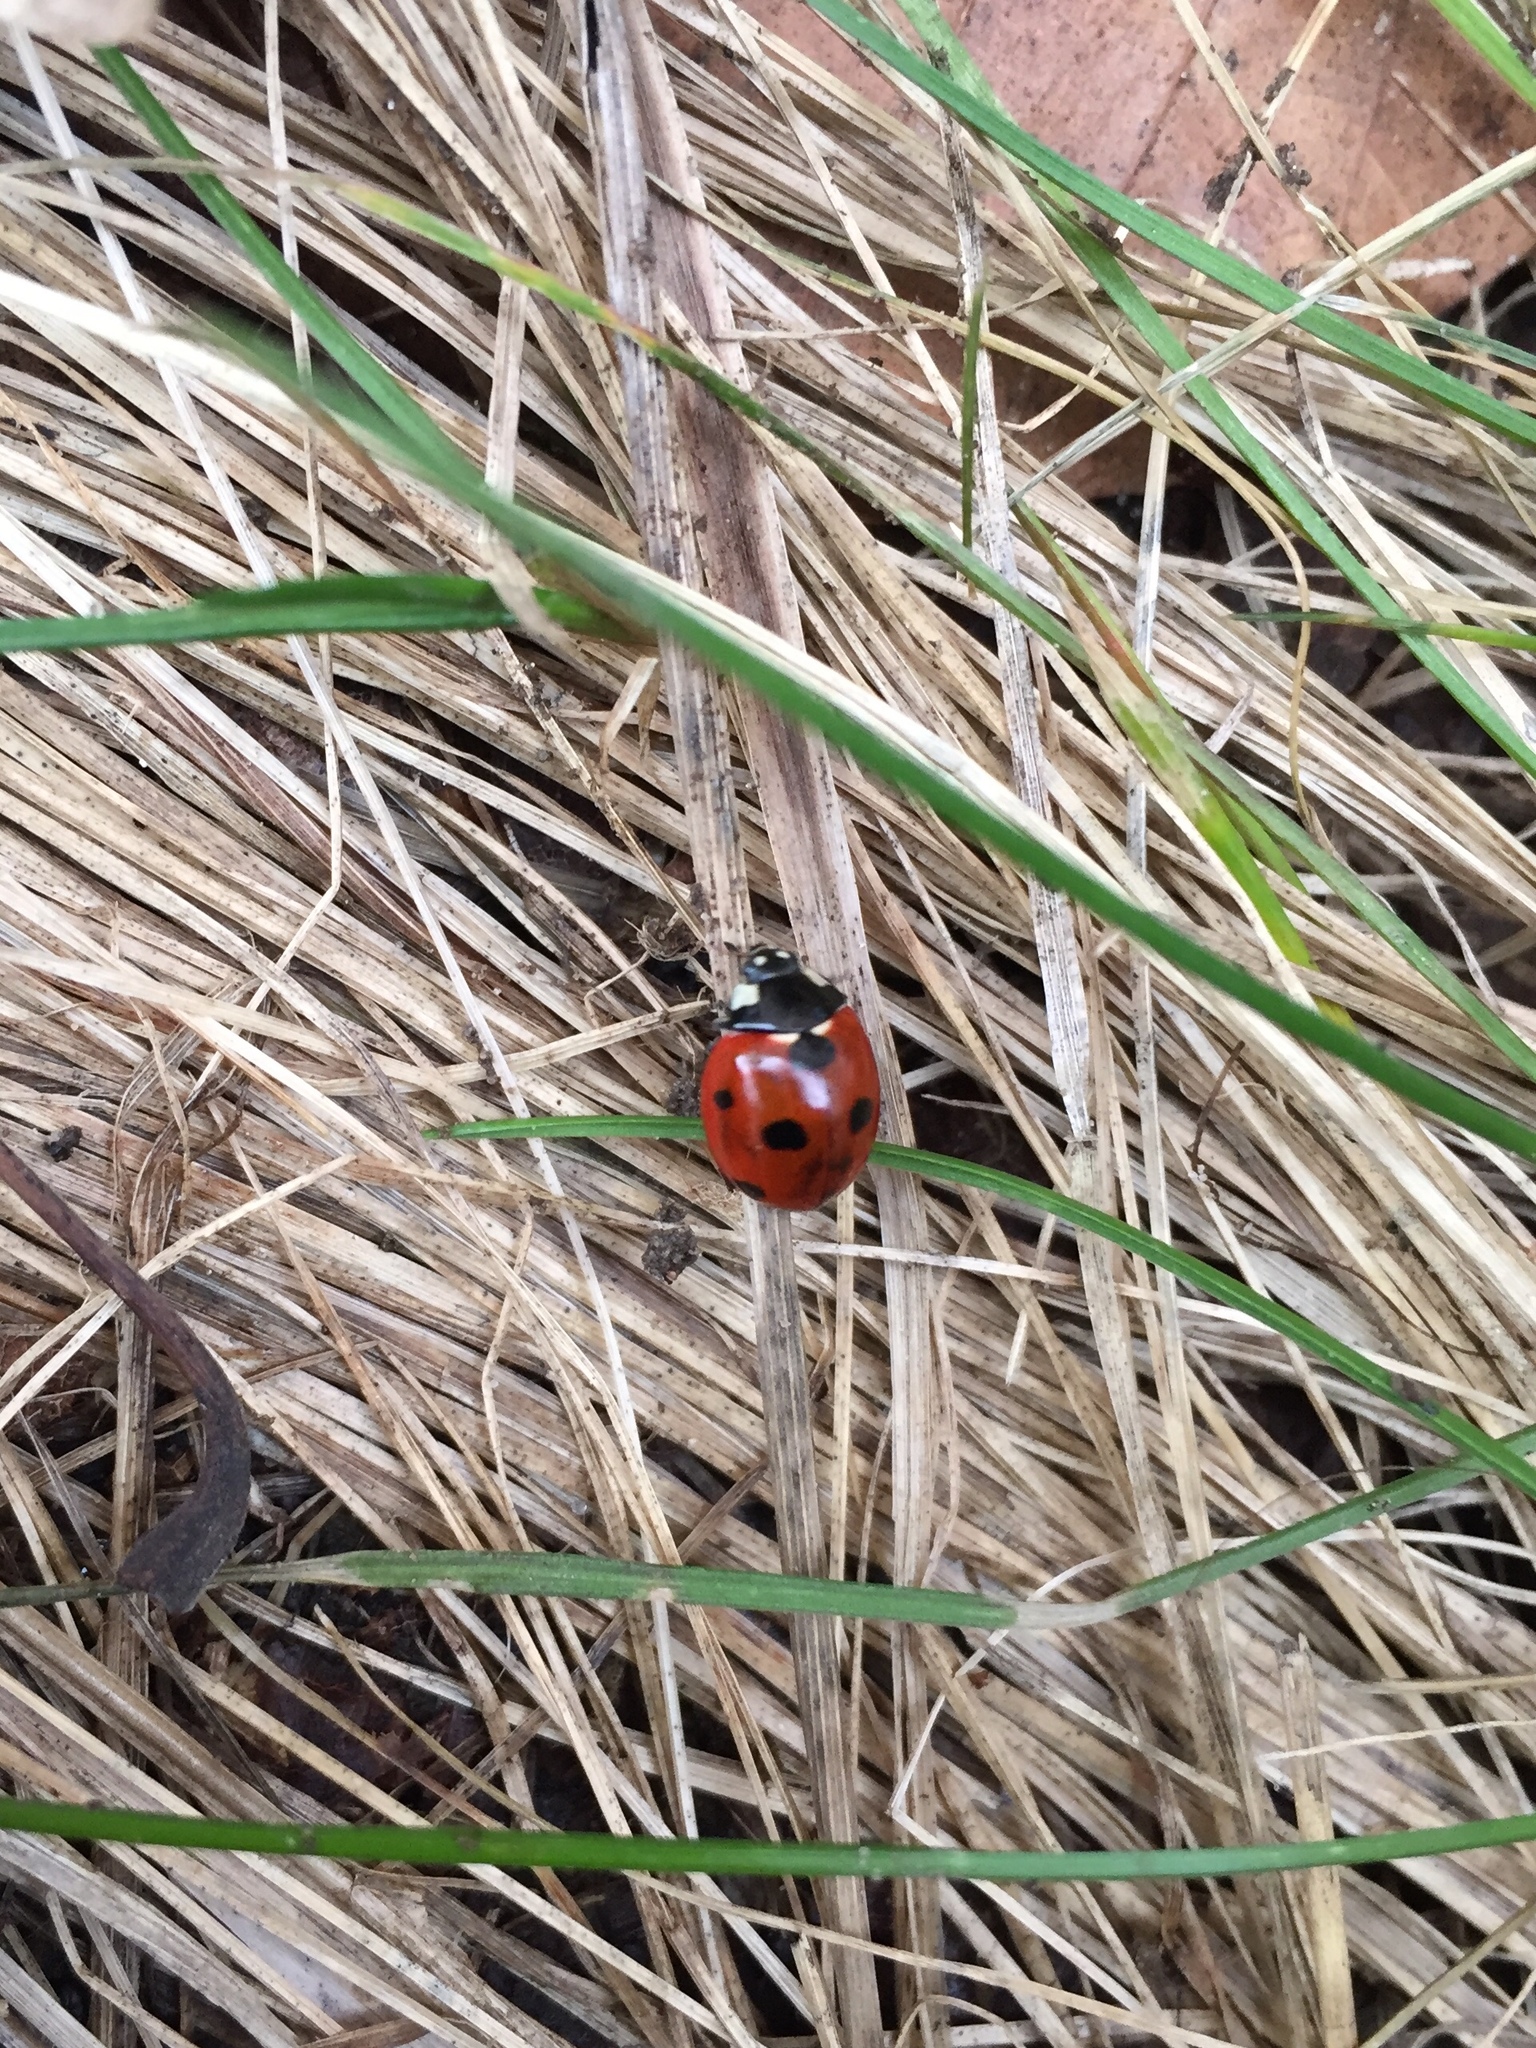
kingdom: Animalia
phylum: Arthropoda
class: Insecta
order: Coleoptera
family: Coccinellidae
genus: Coccinella
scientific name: Coccinella septempunctata
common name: Sevenspotted lady beetle
